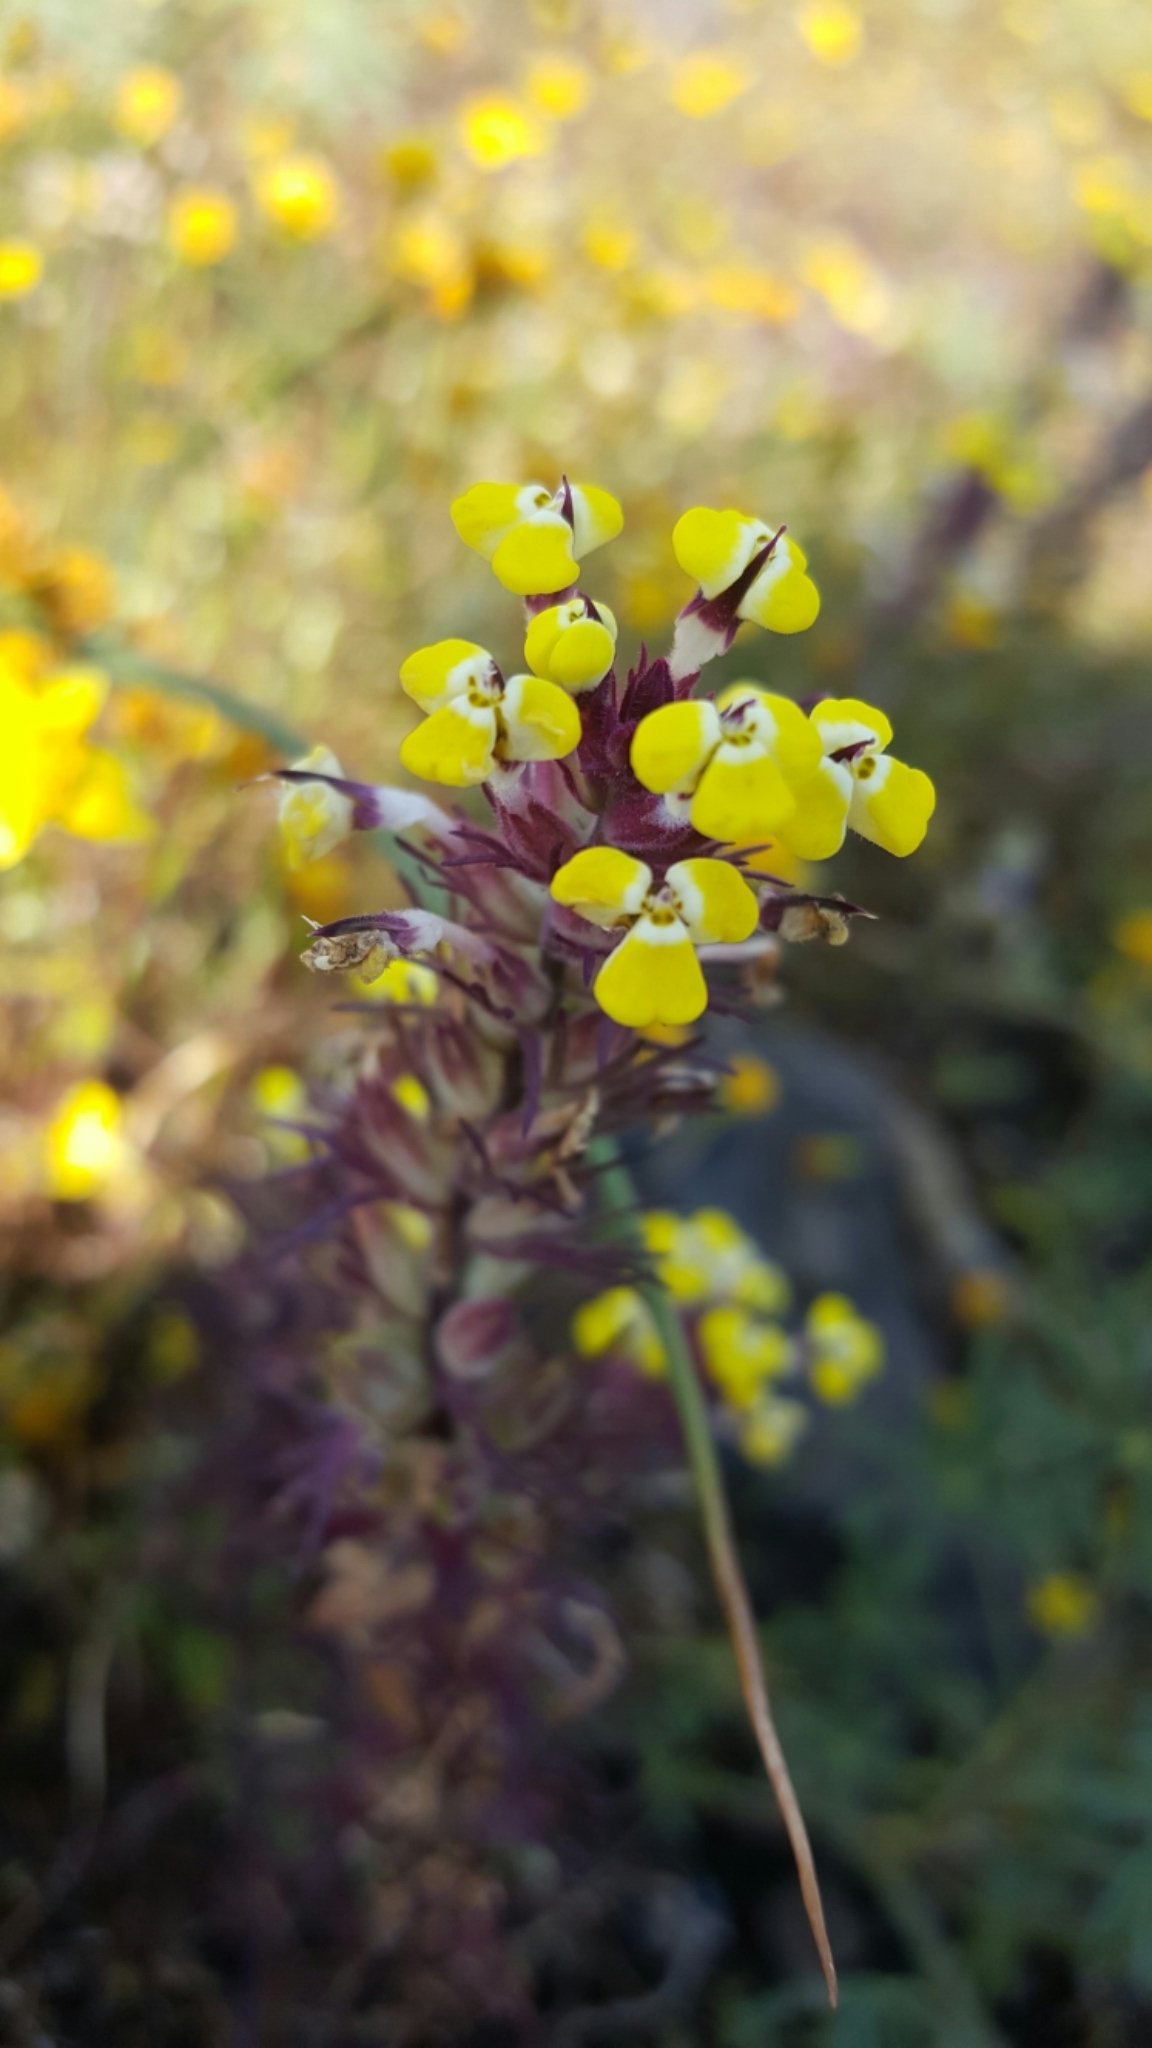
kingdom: Plantae
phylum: Tracheophyta
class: Magnoliopsida
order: Lamiales
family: Orobanchaceae
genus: Triphysaria
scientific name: Triphysaria eriantha
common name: Johnny-tuck
